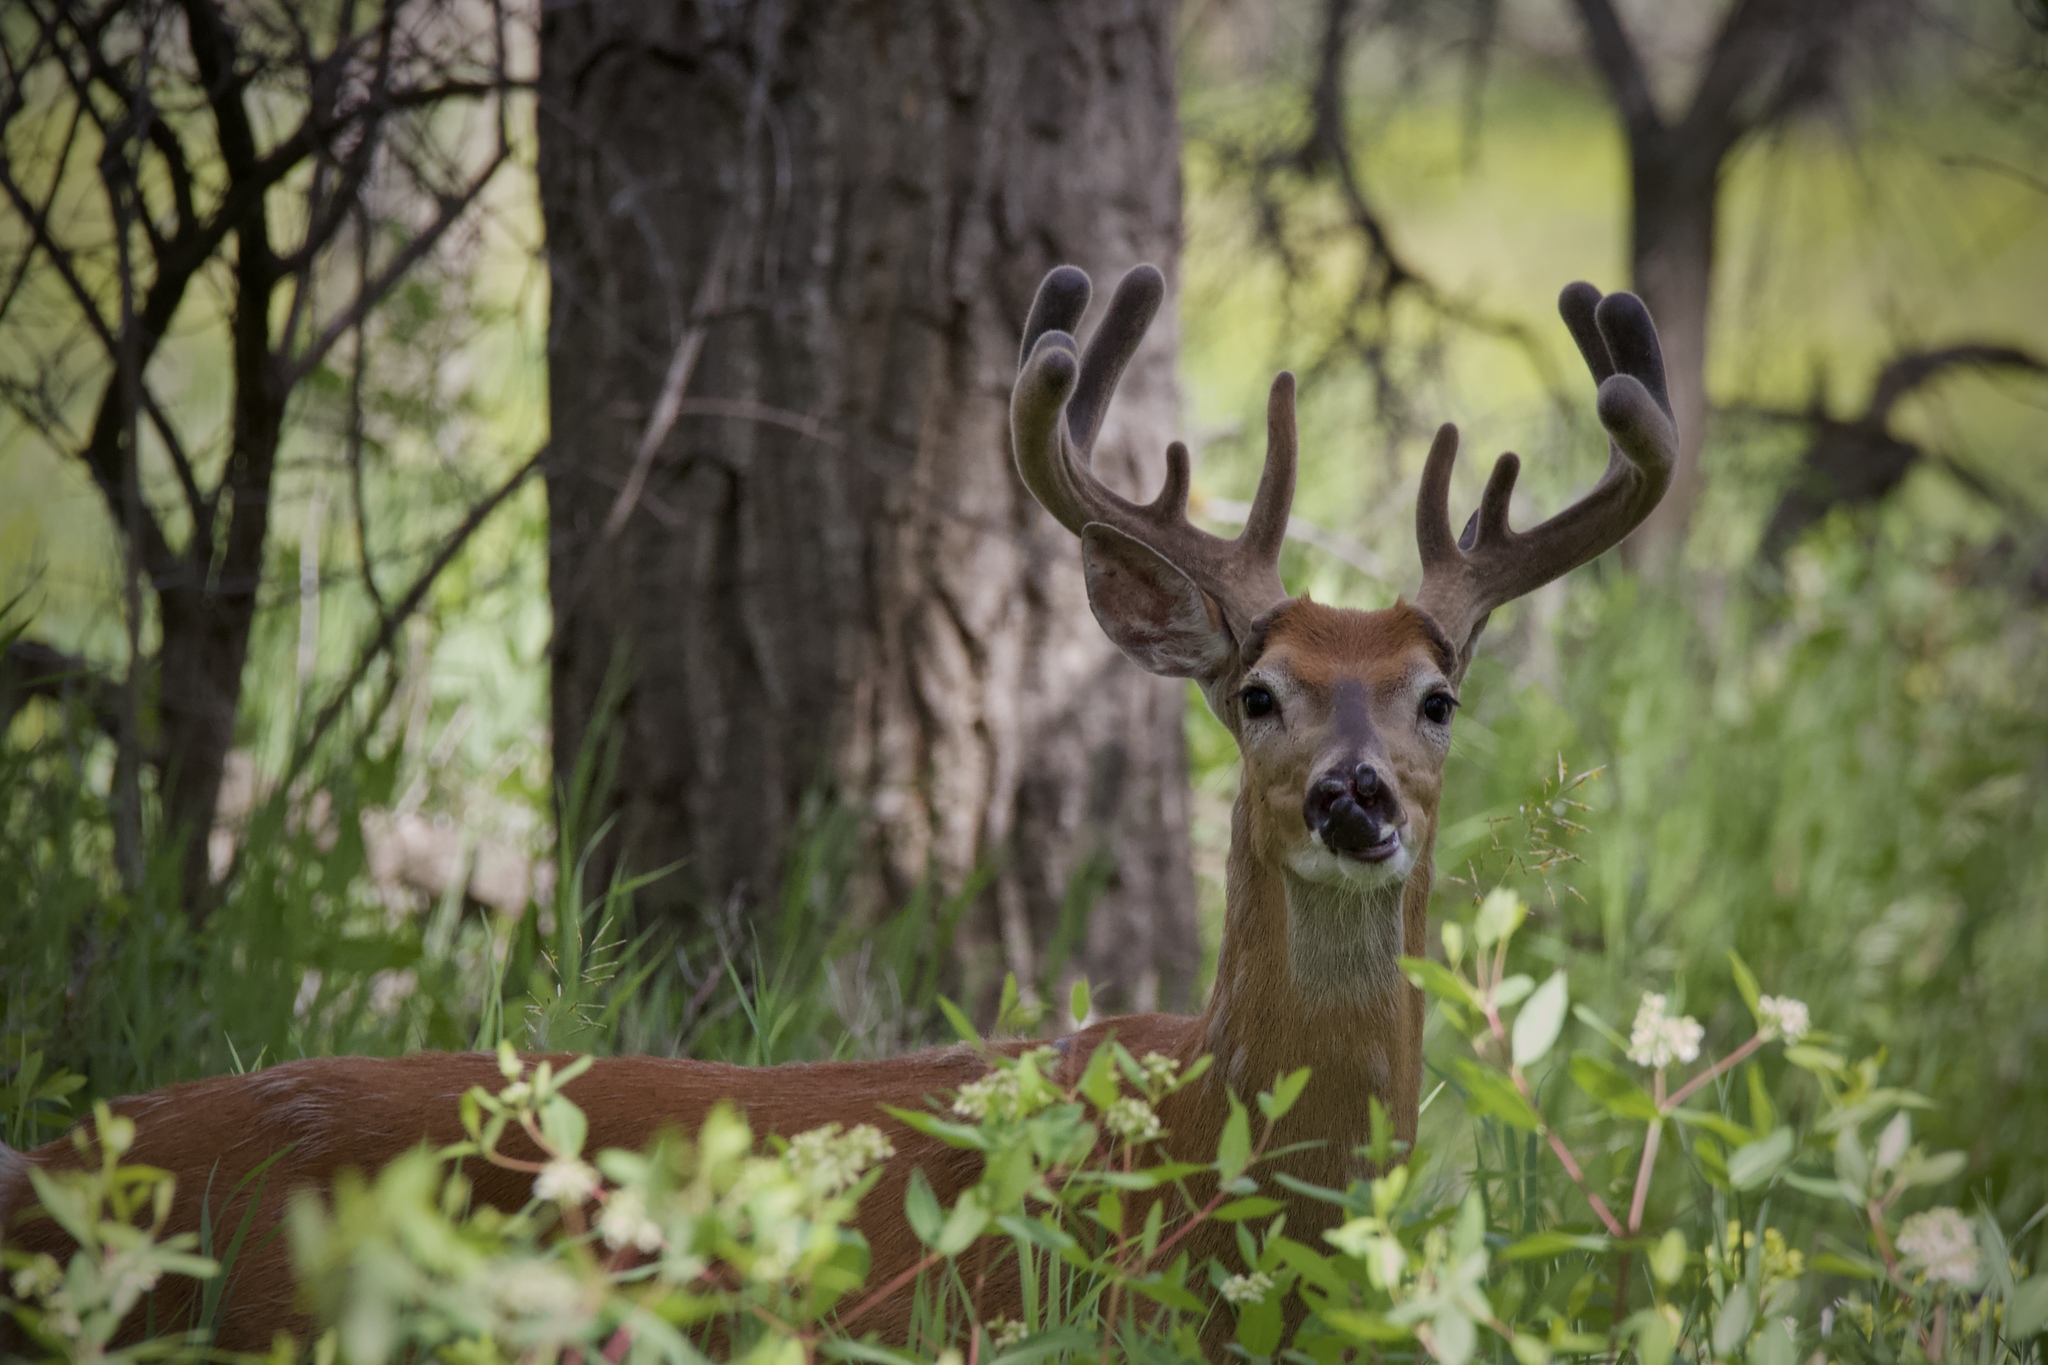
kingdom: Animalia
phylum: Chordata
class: Mammalia
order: Artiodactyla
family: Cervidae
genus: Odocoileus
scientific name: Odocoileus virginianus
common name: White-tailed deer
